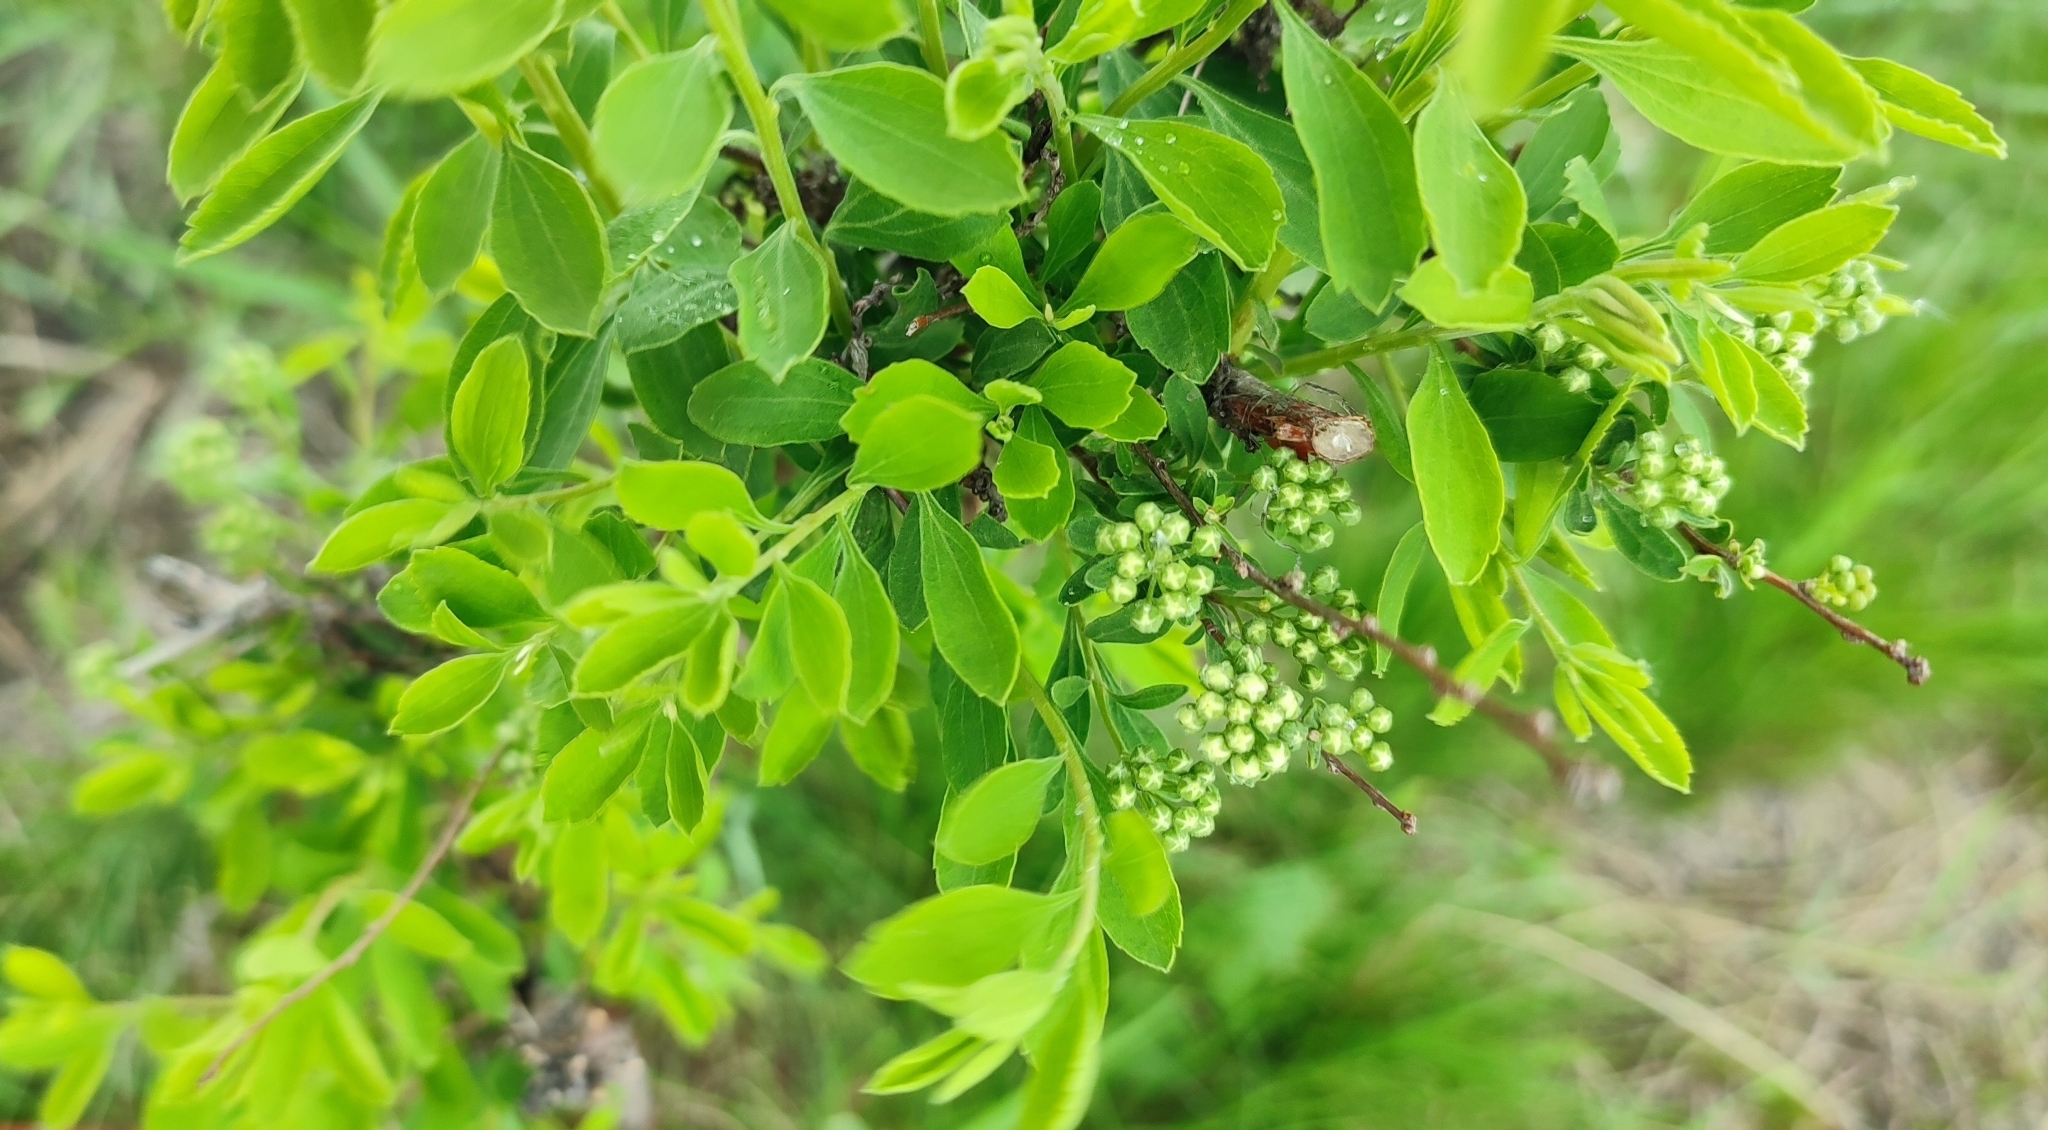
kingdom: Plantae
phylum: Tracheophyta
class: Magnoliopsida
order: Rosales
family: Rosaceae
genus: Spiraea
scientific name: Spiraea crenata
